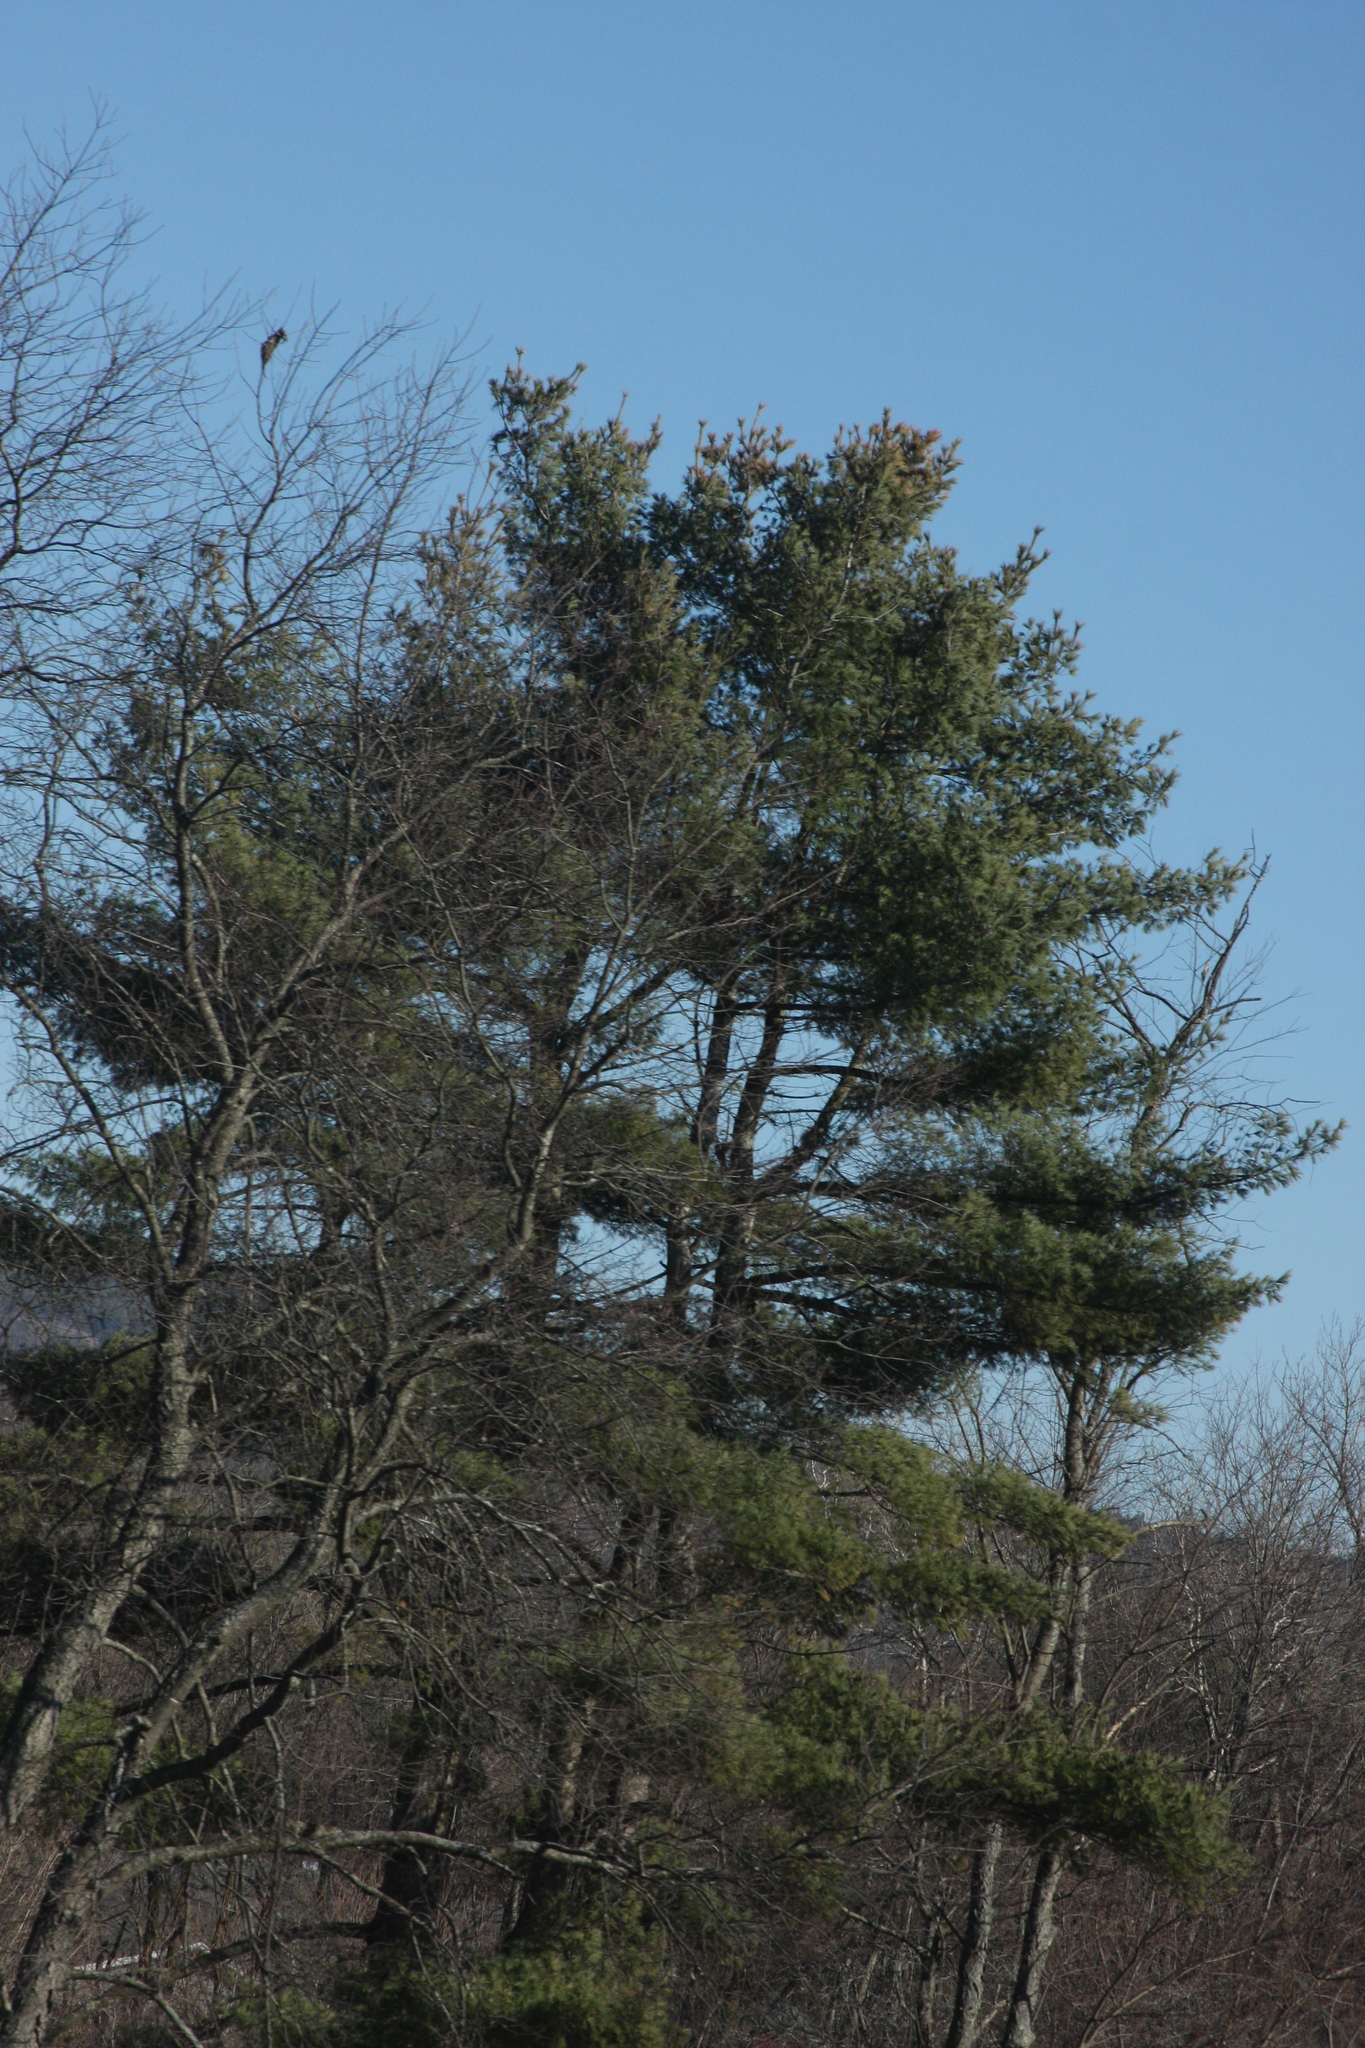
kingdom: Plantae
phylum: Tracheophyta
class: Pinopsida
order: Pinales
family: Pinaceae
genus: Pinus
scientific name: Pinus strobus
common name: Weymouth pine
